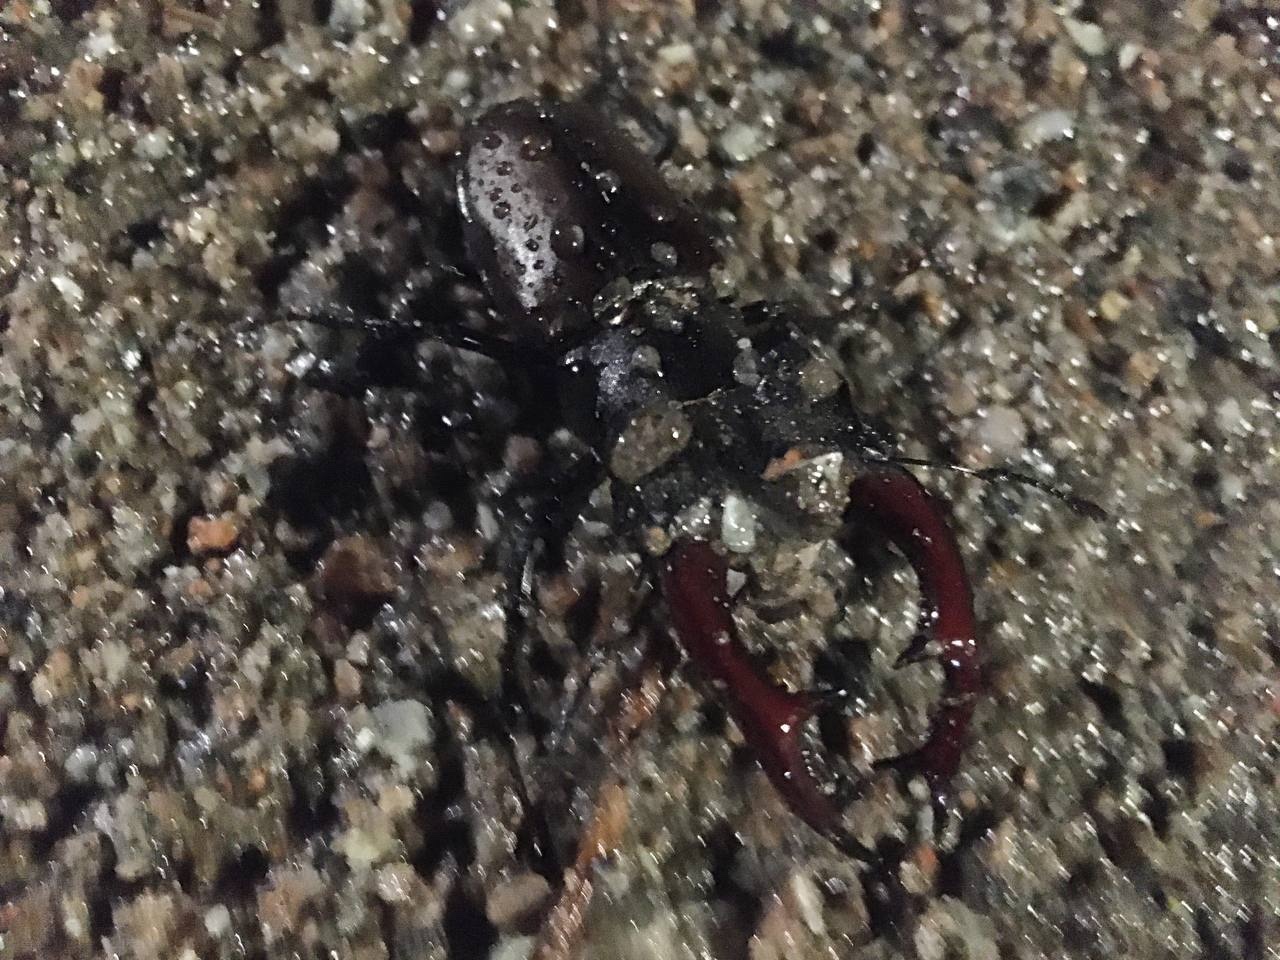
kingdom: Animalia
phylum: Arthropoda
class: Insecta
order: Coleoptera
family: Lucanidae
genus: Lucanus
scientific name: Lucanus cervus
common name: Stag beetle
